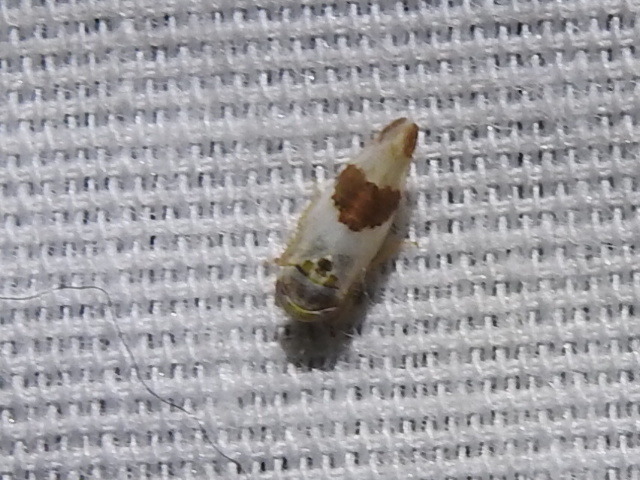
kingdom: Animalia
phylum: Arthropoda
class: Insecta
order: Hemiptera
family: Cicadellidae
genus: Norvellina
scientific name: Norvellina seminuda
